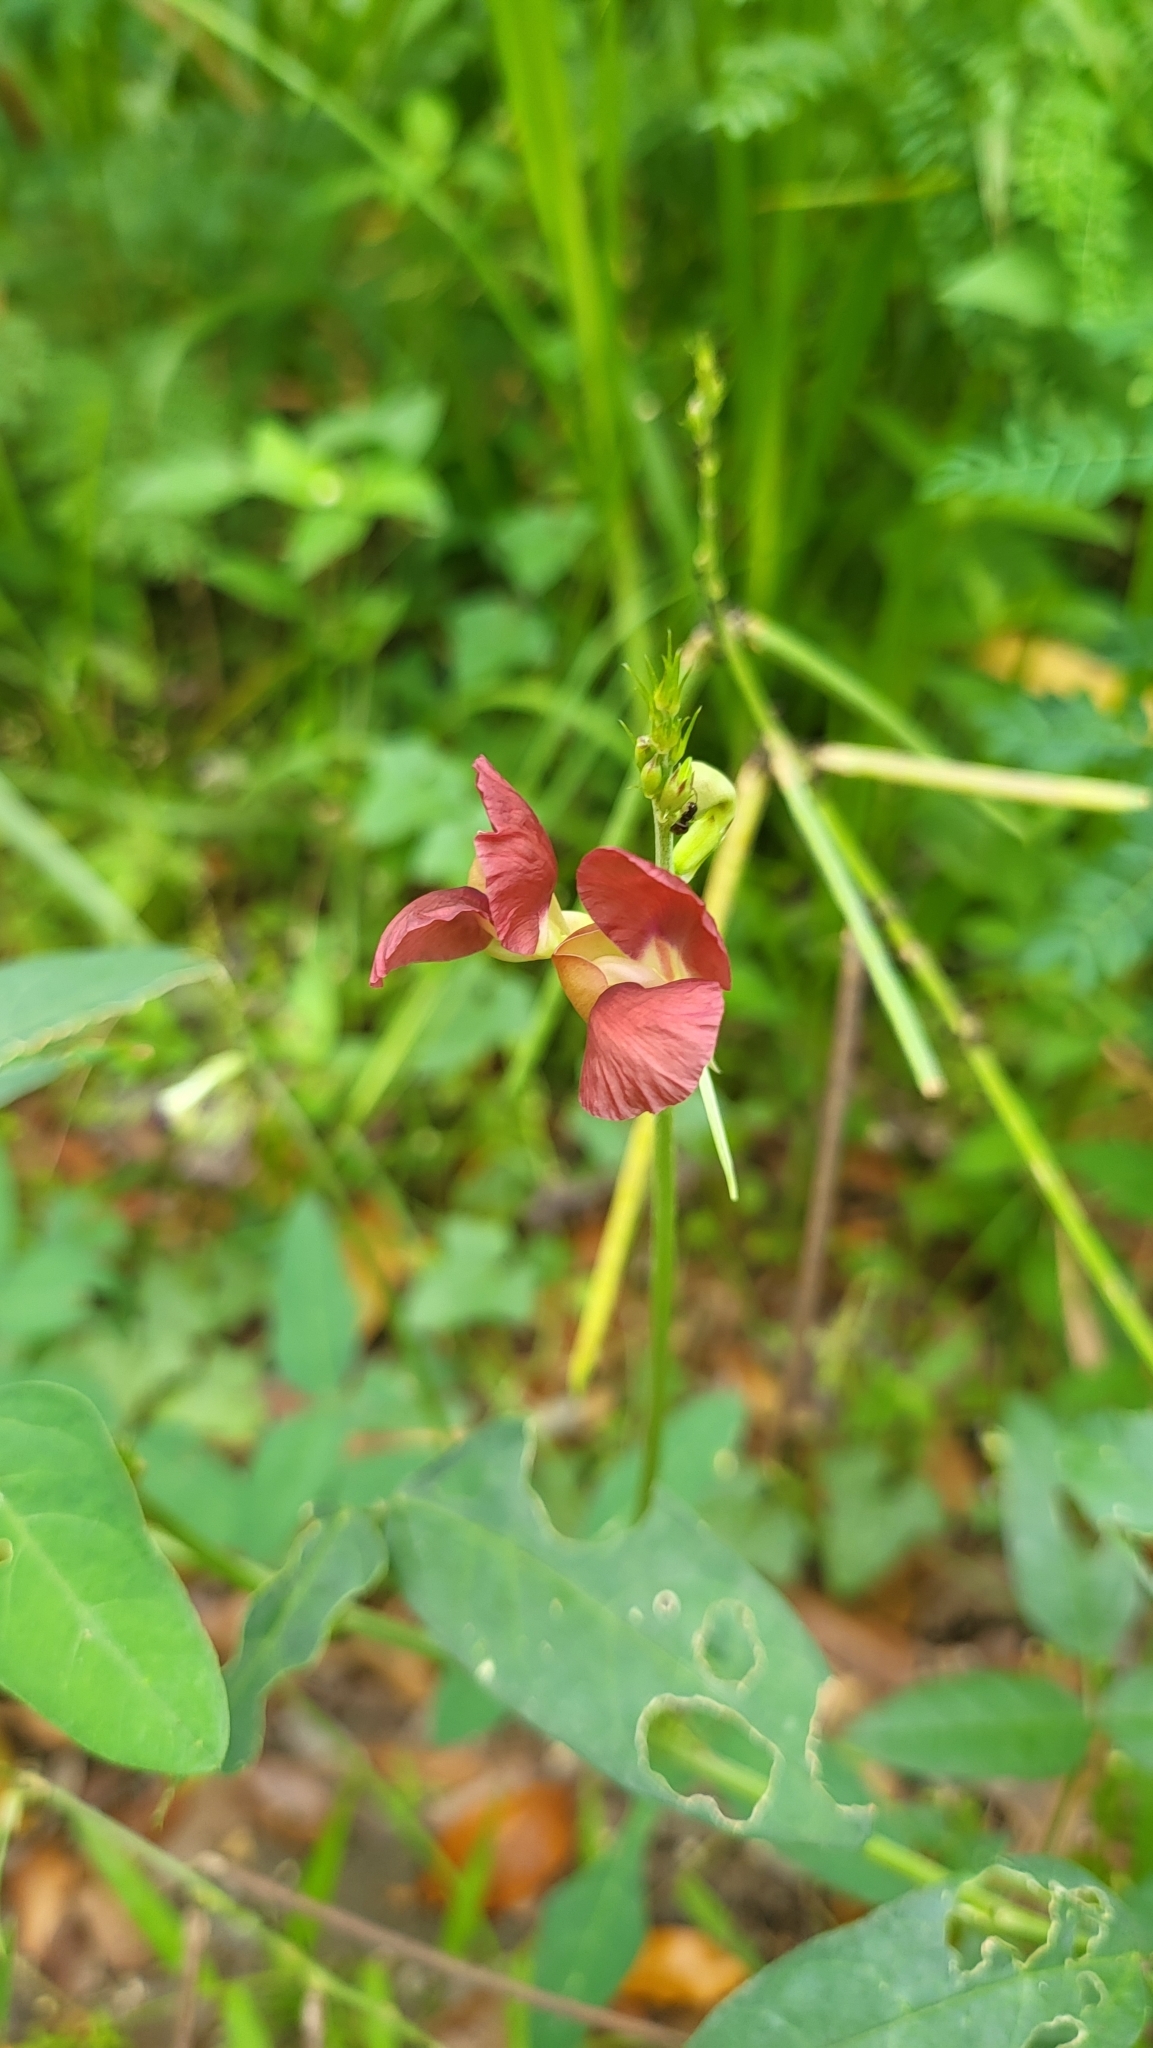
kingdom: Plantae
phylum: Tracheophyta
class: Magnoliopsida
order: Fabales
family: Fabaceae
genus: Macroptilium
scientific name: Macroptilium lathyroides
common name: Wild bushbean
